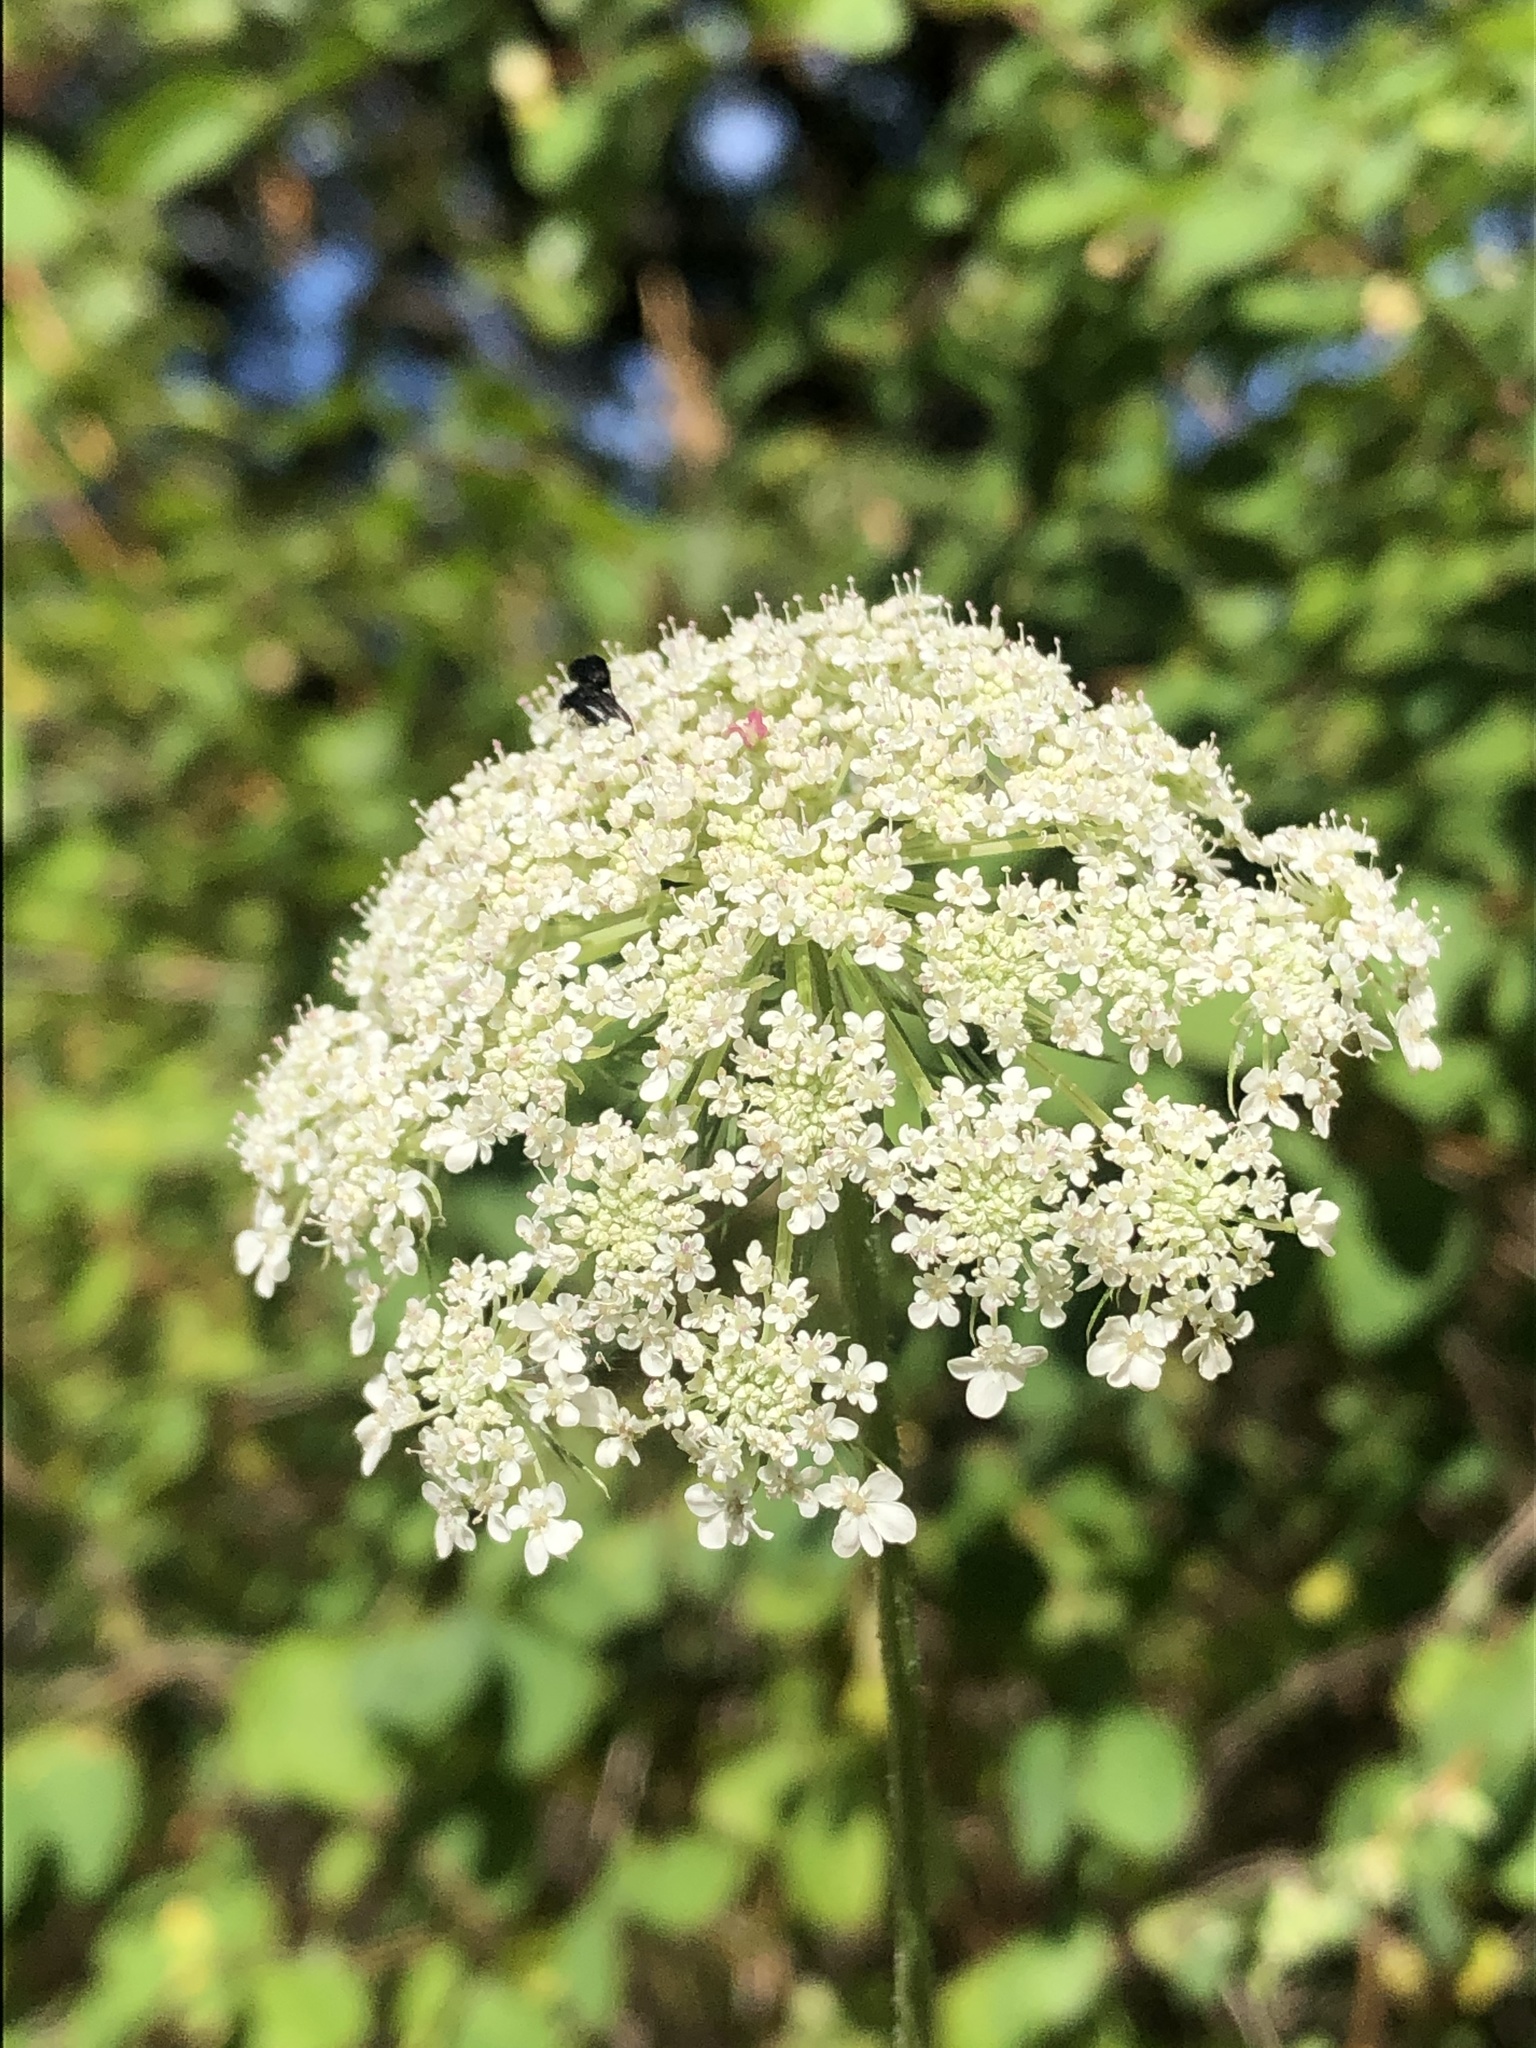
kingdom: Plantae
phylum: Tracheophyta
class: Magnoliopsida
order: Apiales
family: Apiaceae
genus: Daucus
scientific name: Daucus carota
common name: Wild carrot
